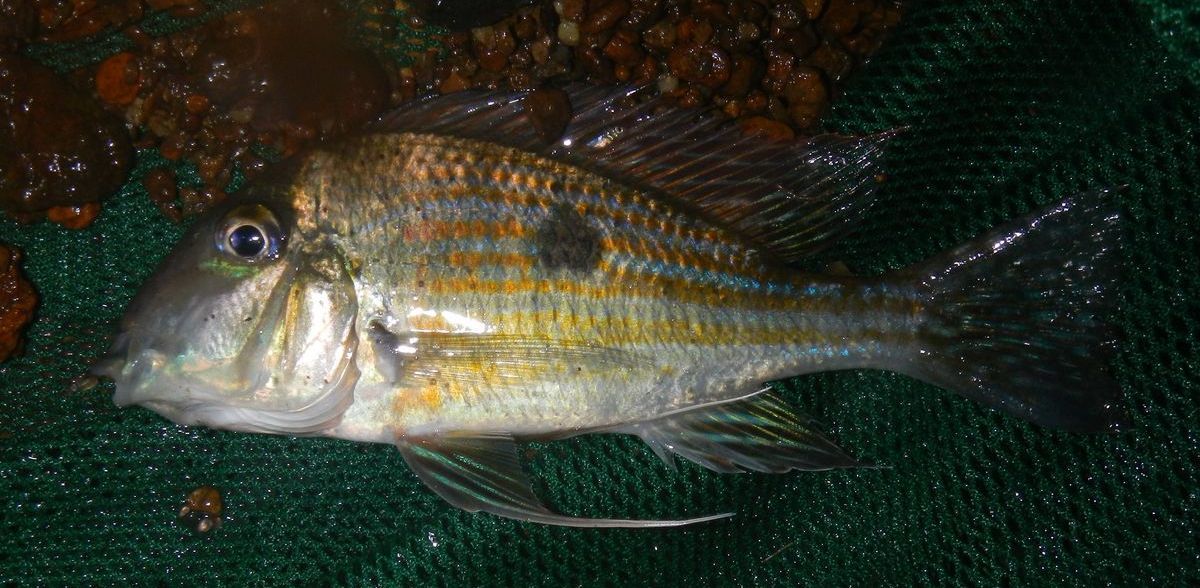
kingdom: Animalia
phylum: Chordata
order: Perciformes
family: Cichlidae
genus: Geophagus
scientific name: Geophagus brachybranchus
